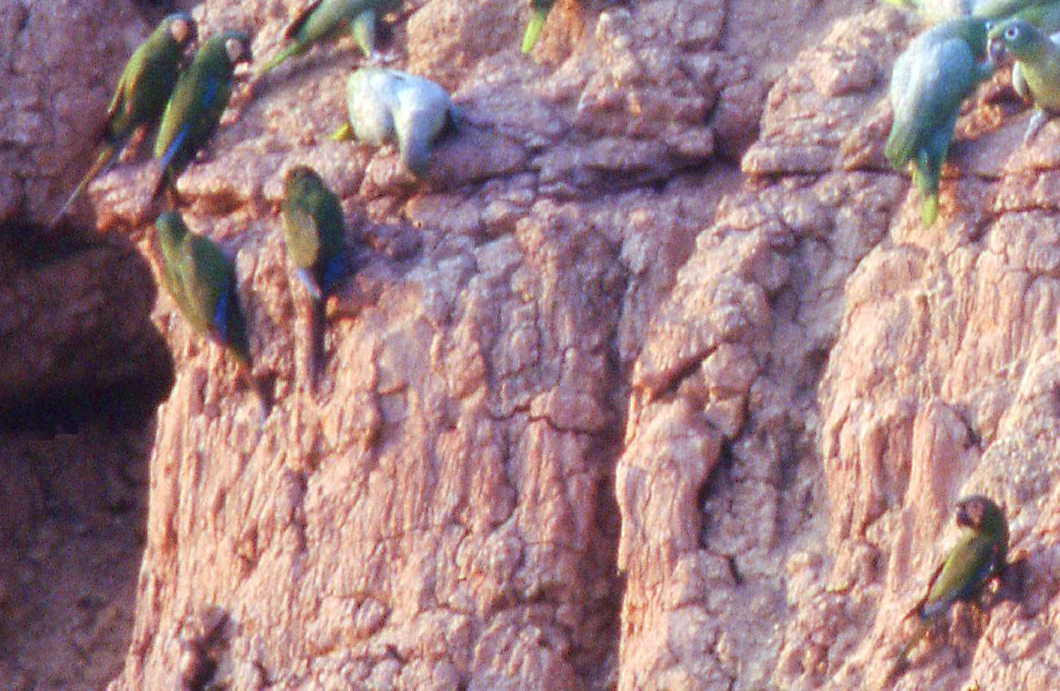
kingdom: Animalia
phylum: Chordata
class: Aves
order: Psittaciformes
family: Psittacidae
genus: Ara
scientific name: Ara severus
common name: Chestnut-fronted macaw
